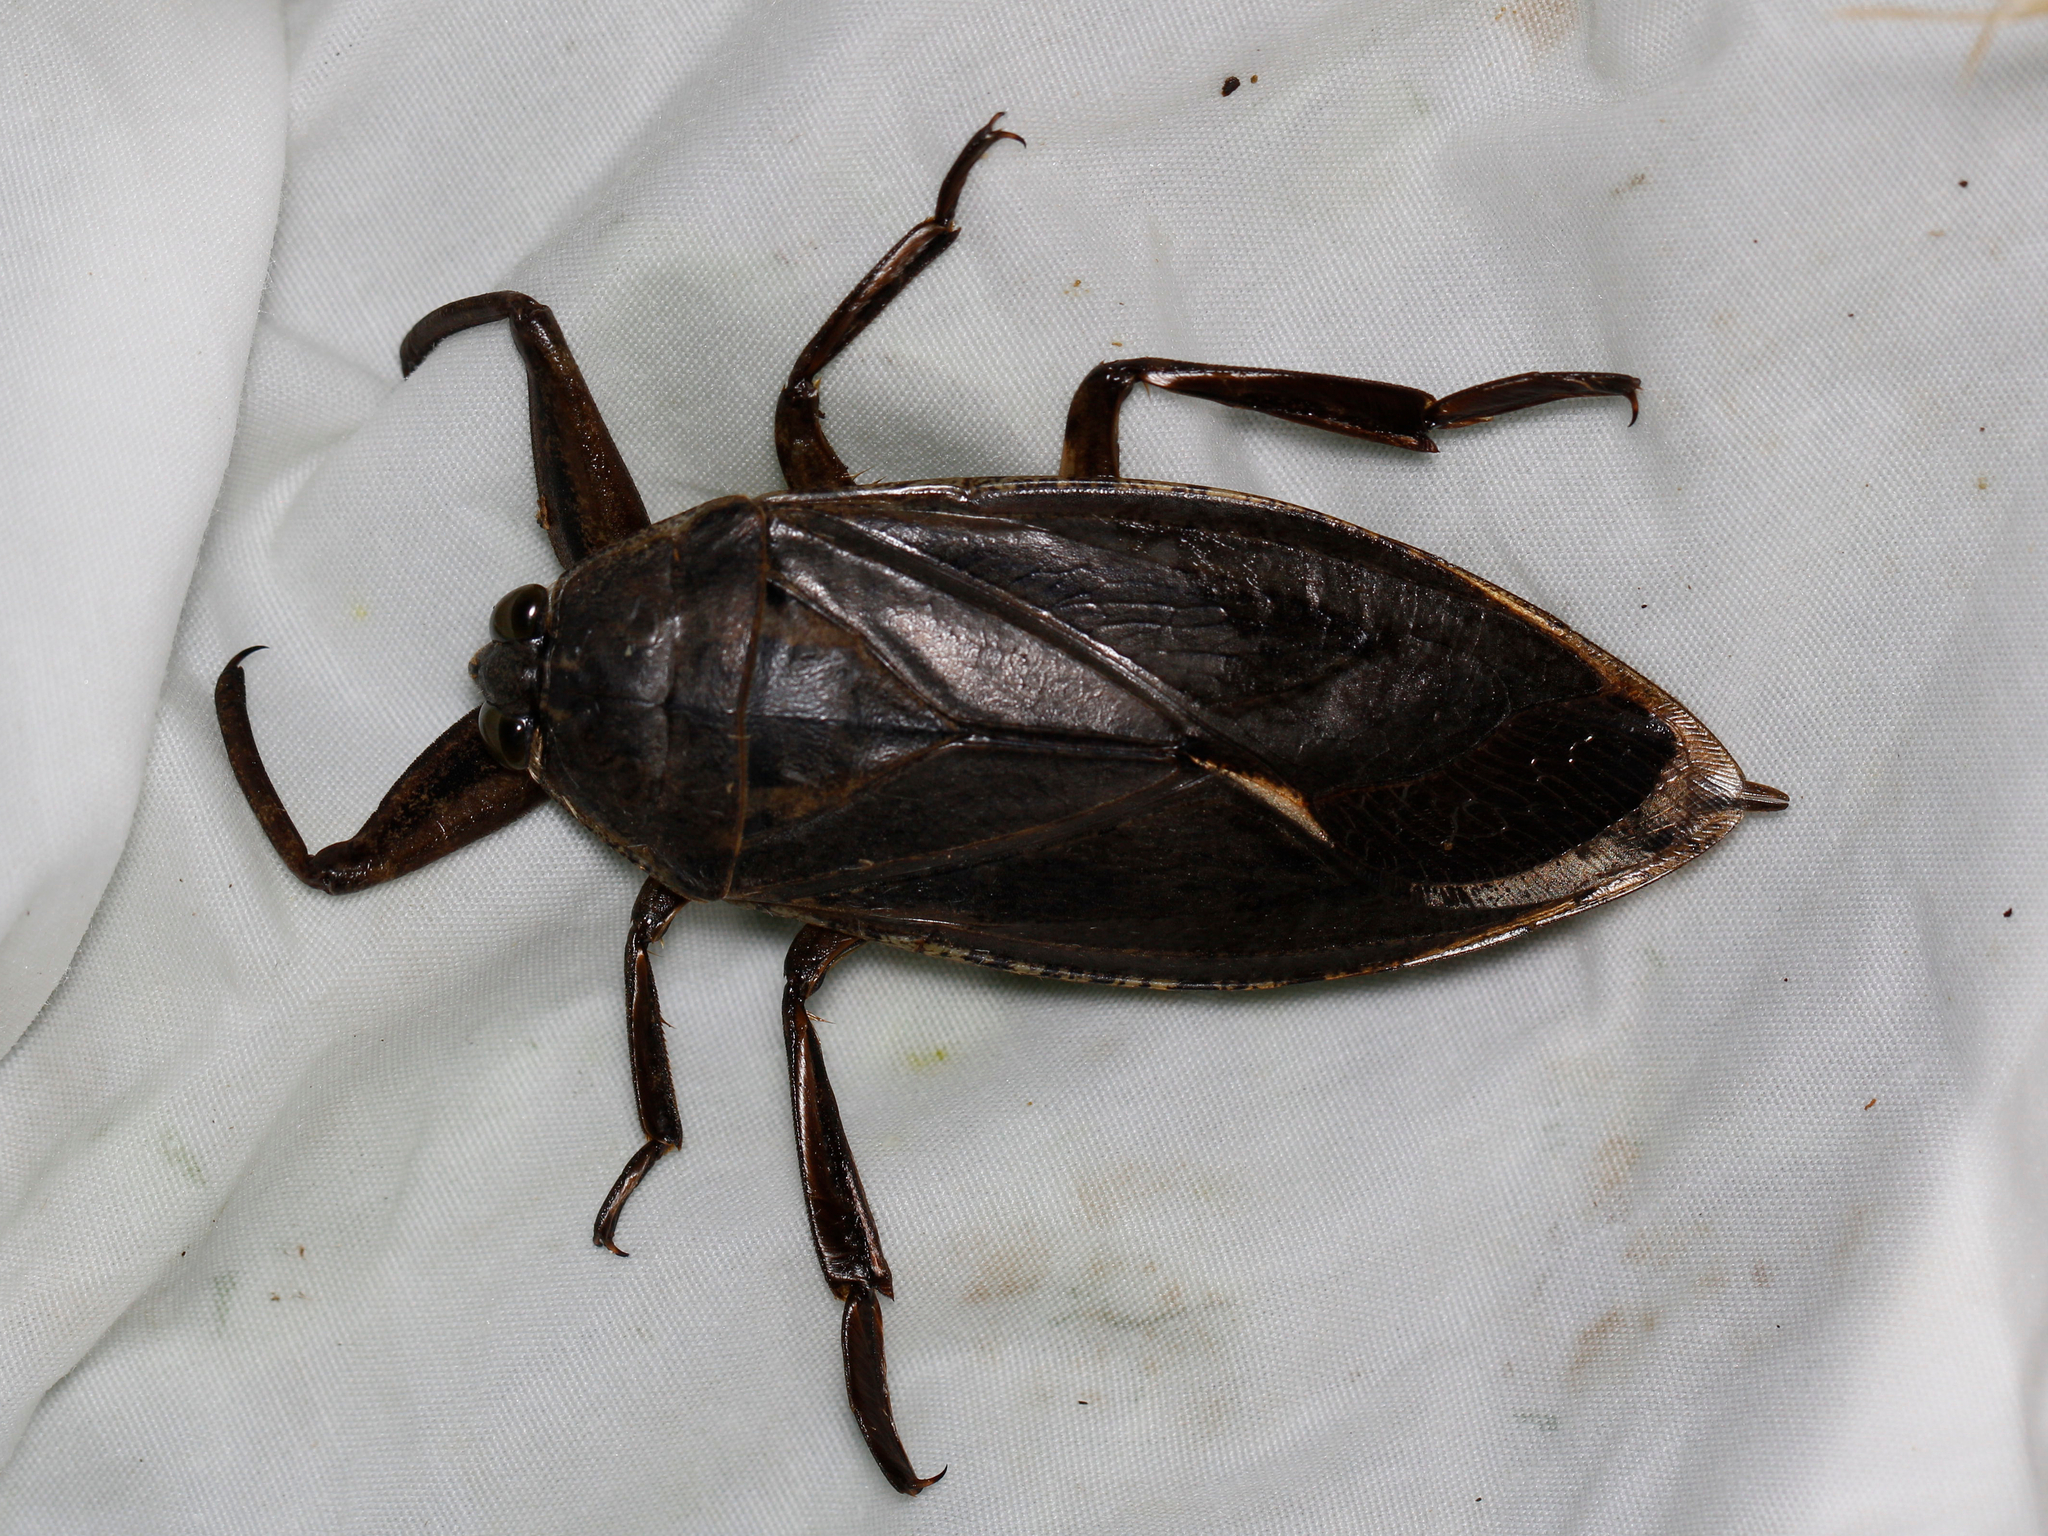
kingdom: Animalia
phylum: Arthropoda
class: Insecta
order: Hemiptera
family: Belostomatidae
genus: Lethocerus
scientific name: Lethocerus americanus
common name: Giant water bug
